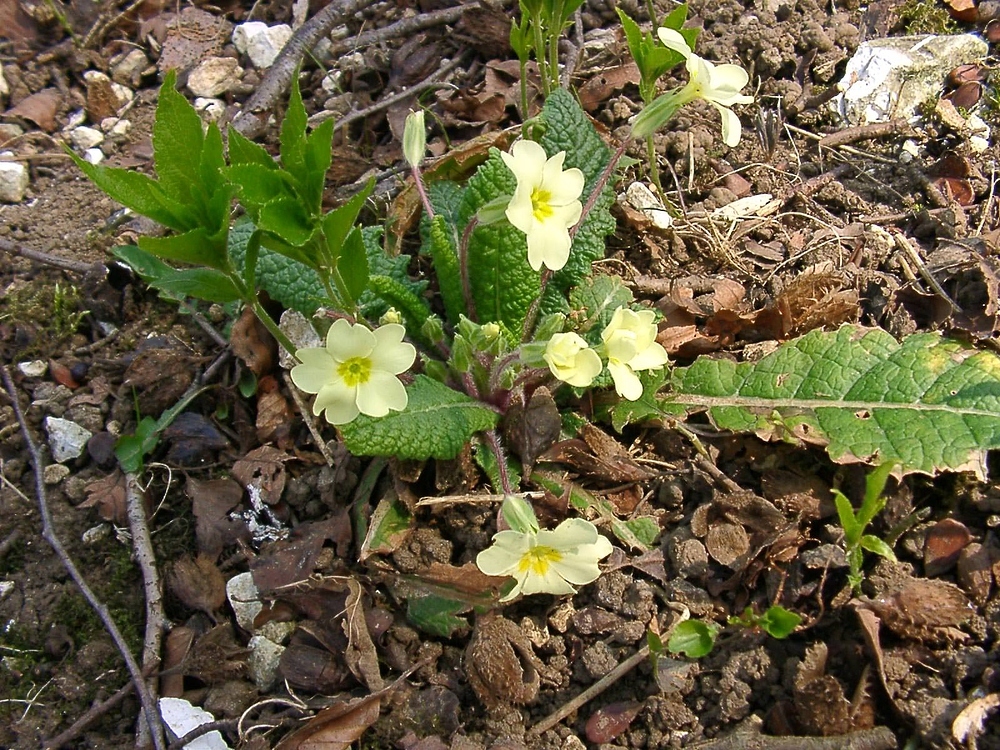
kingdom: Plantae
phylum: Tracheophyta
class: Magnoliopsida
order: Ericales
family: Primulaceae
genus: Primula
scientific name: Primula vulgaris
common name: Primrose
